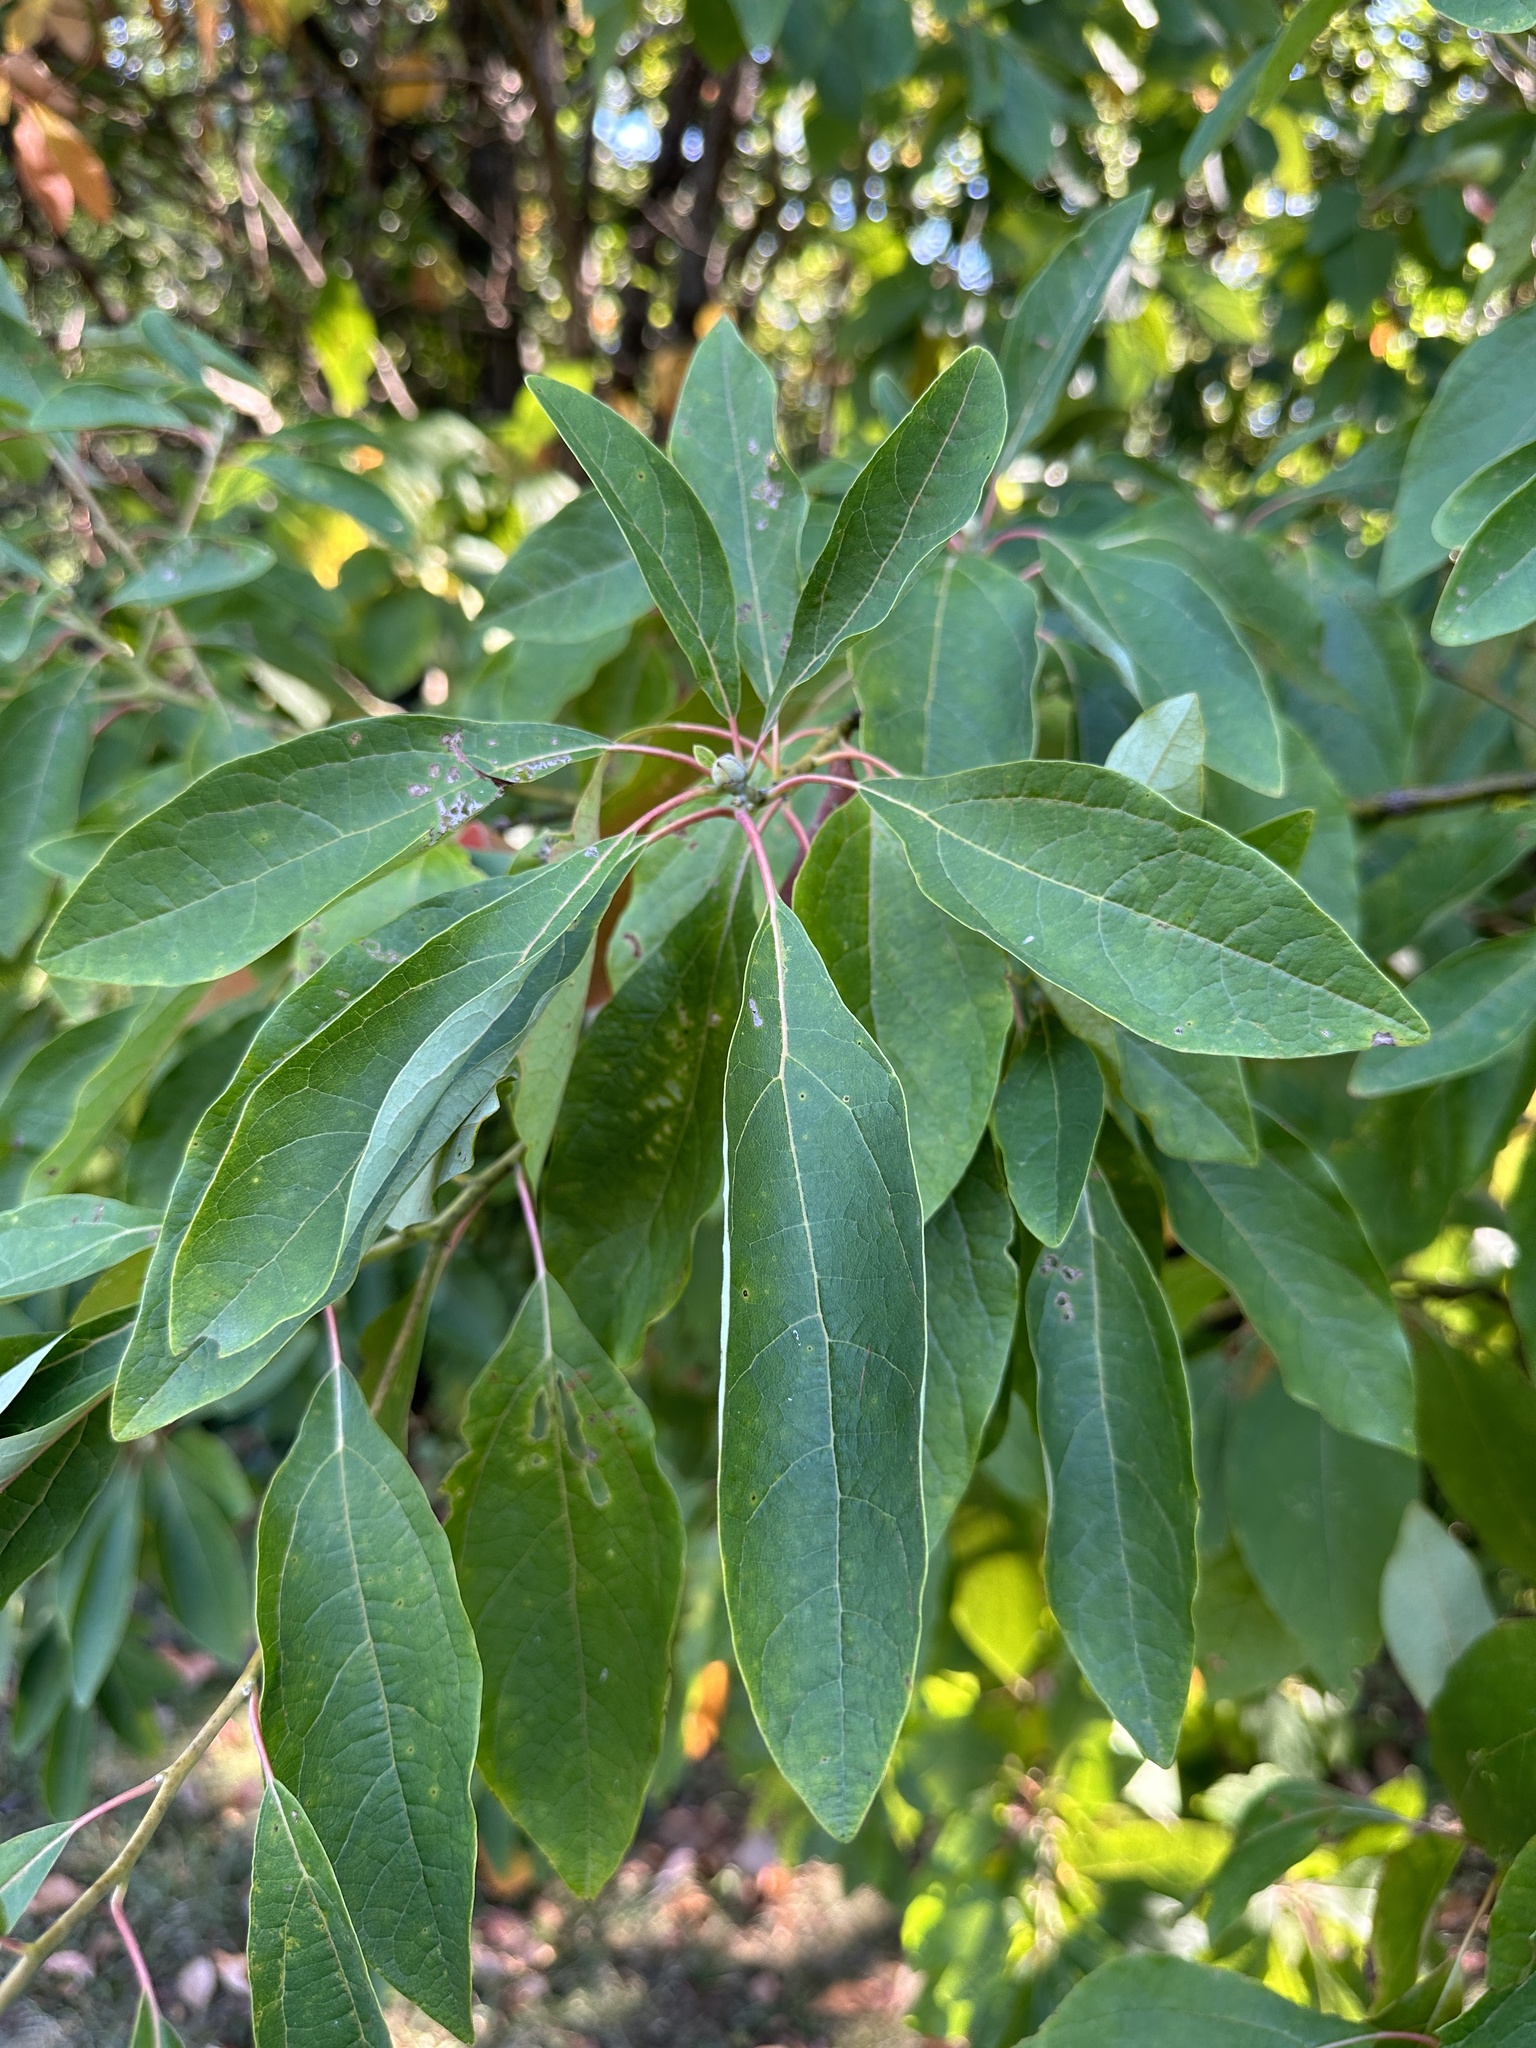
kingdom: Plantae
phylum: Tracheophyta
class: Magnoliopsida
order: Laurales
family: Lauraceae
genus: Sassafras
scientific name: Sassafras albidum
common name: Sassafras
